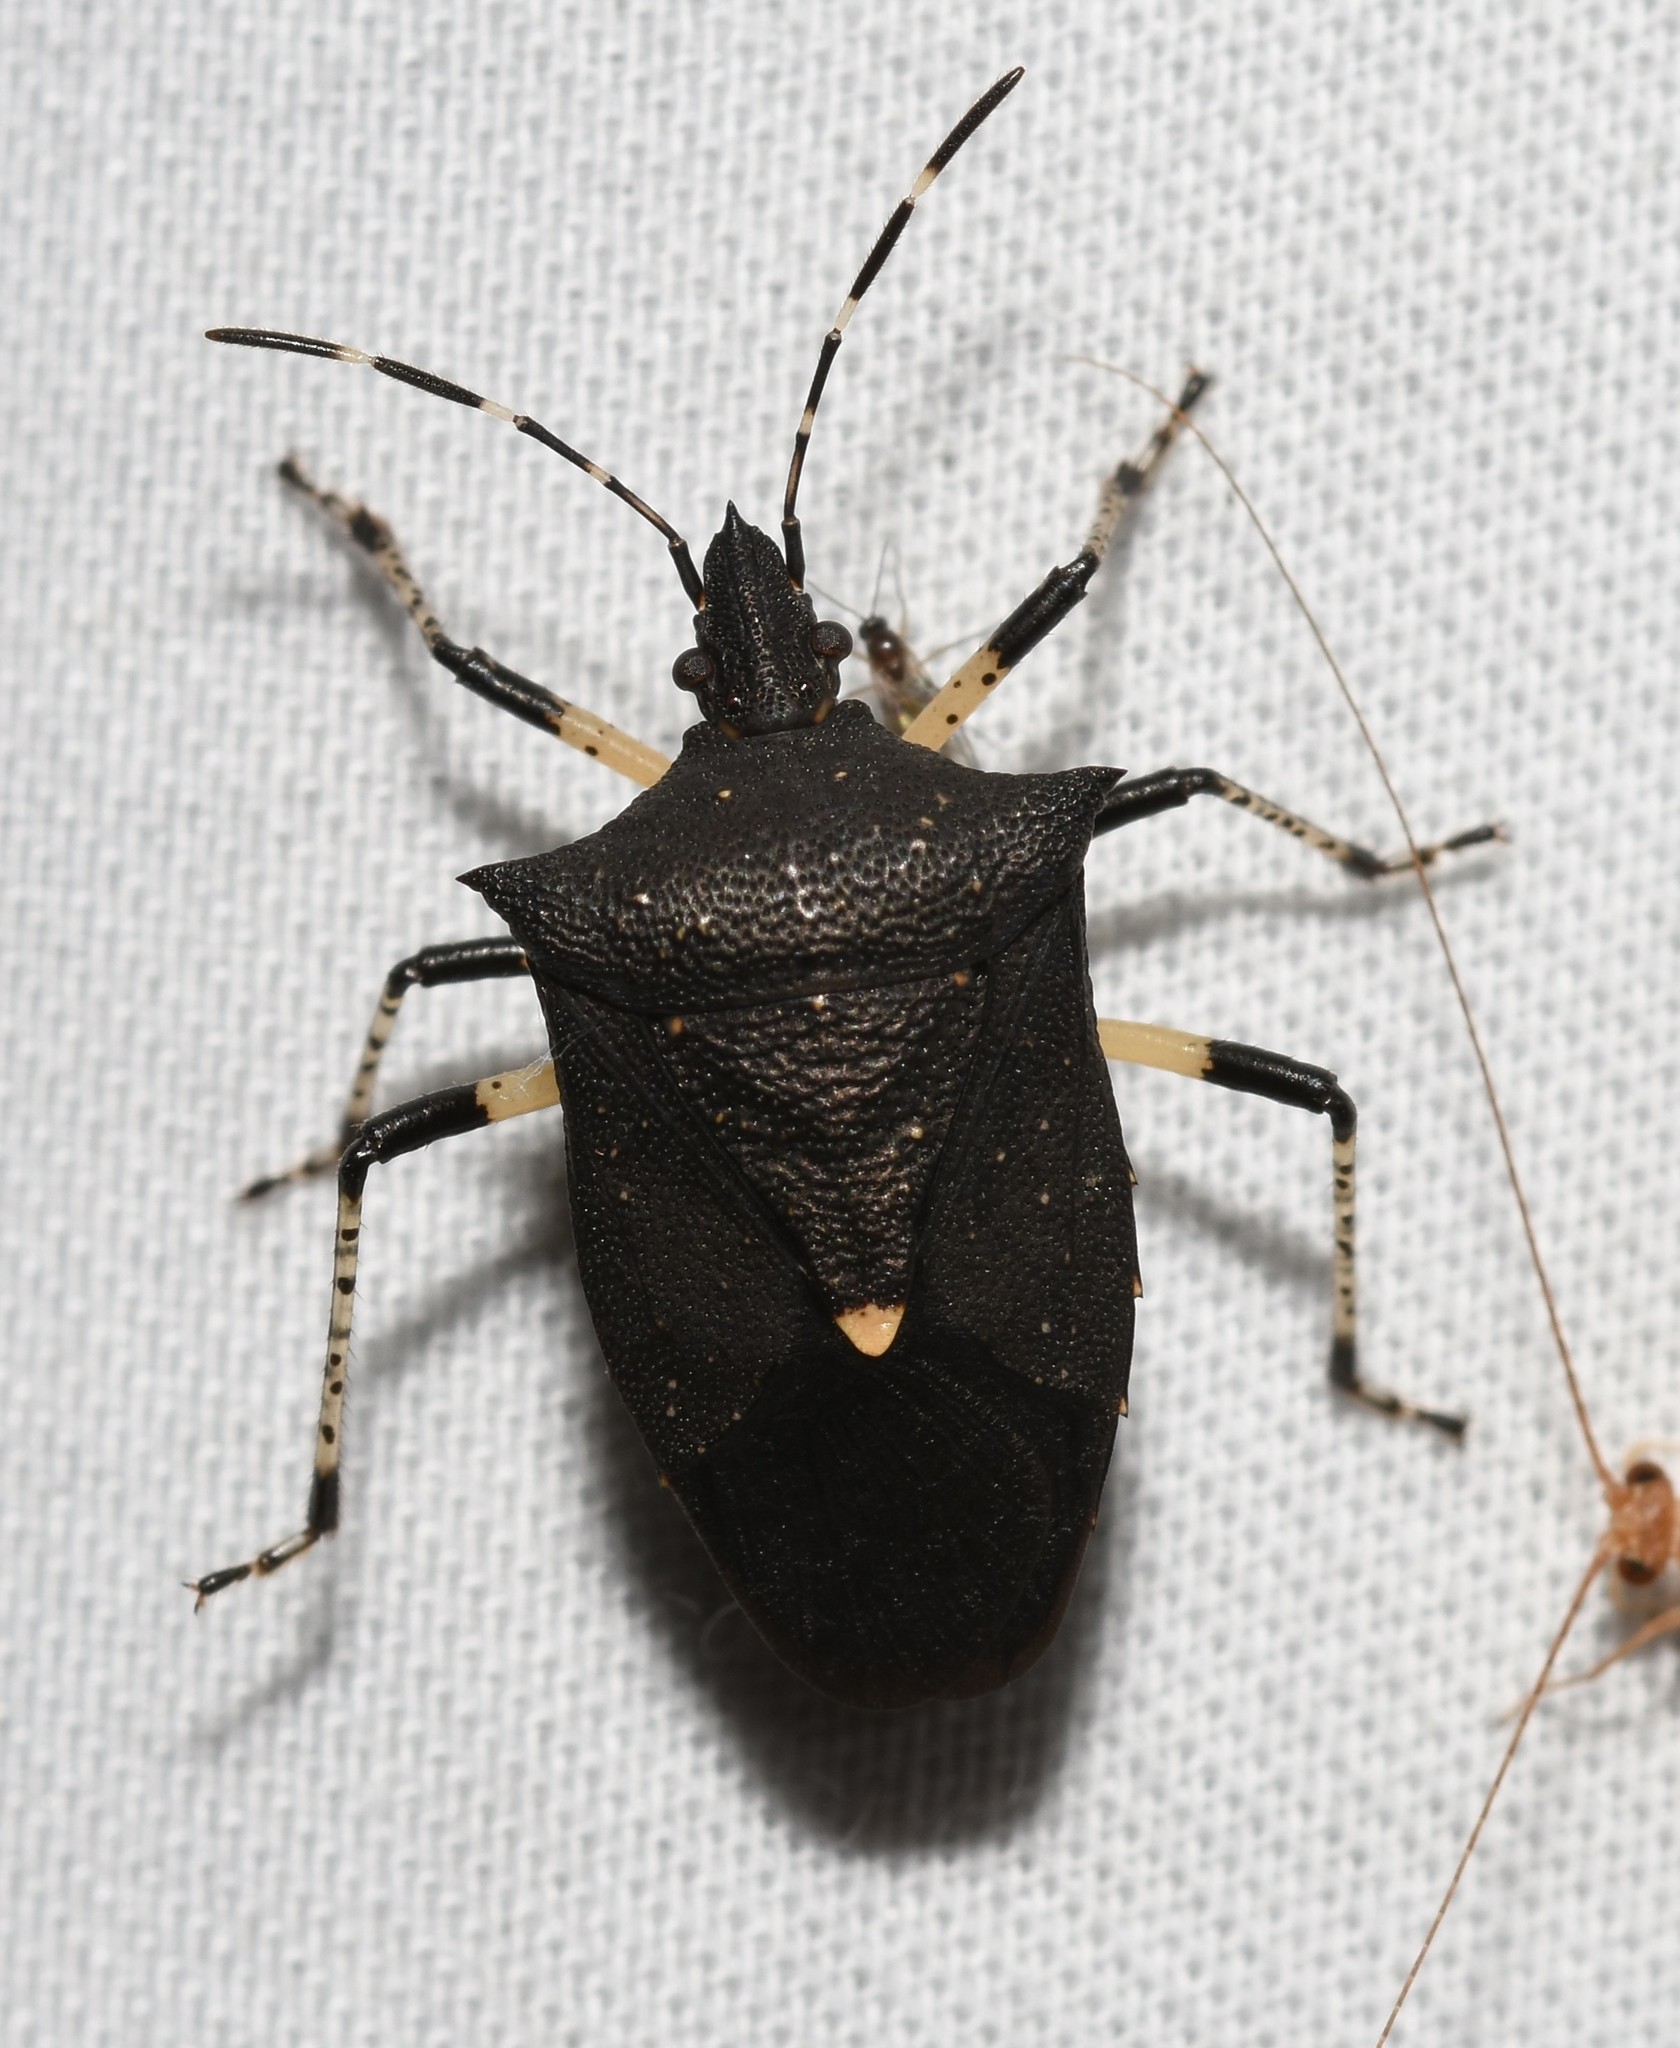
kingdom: Animalia
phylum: Arthropoda
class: Insecta
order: Hemiptera
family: Pentatomidae
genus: Proxys
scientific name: Proxys punctulatus
